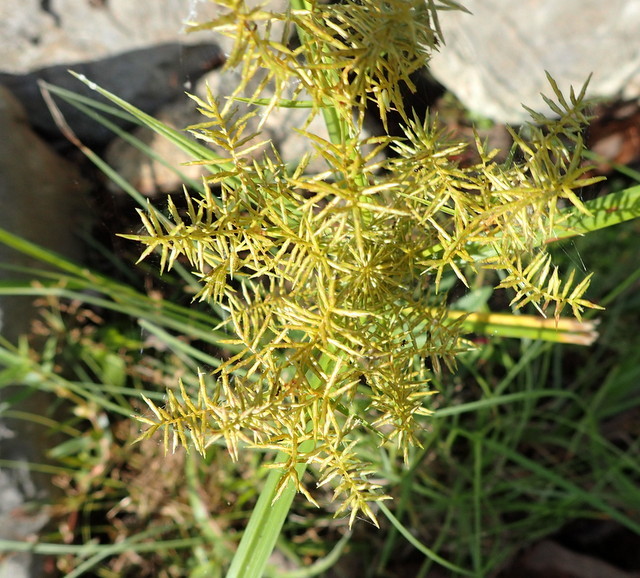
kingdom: Plantae
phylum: Tracheophyta
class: Liliopsida
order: Poales
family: Cyperaceae
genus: Cyperus
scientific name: Cyperus odoratus
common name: Fragrant flatsedge
